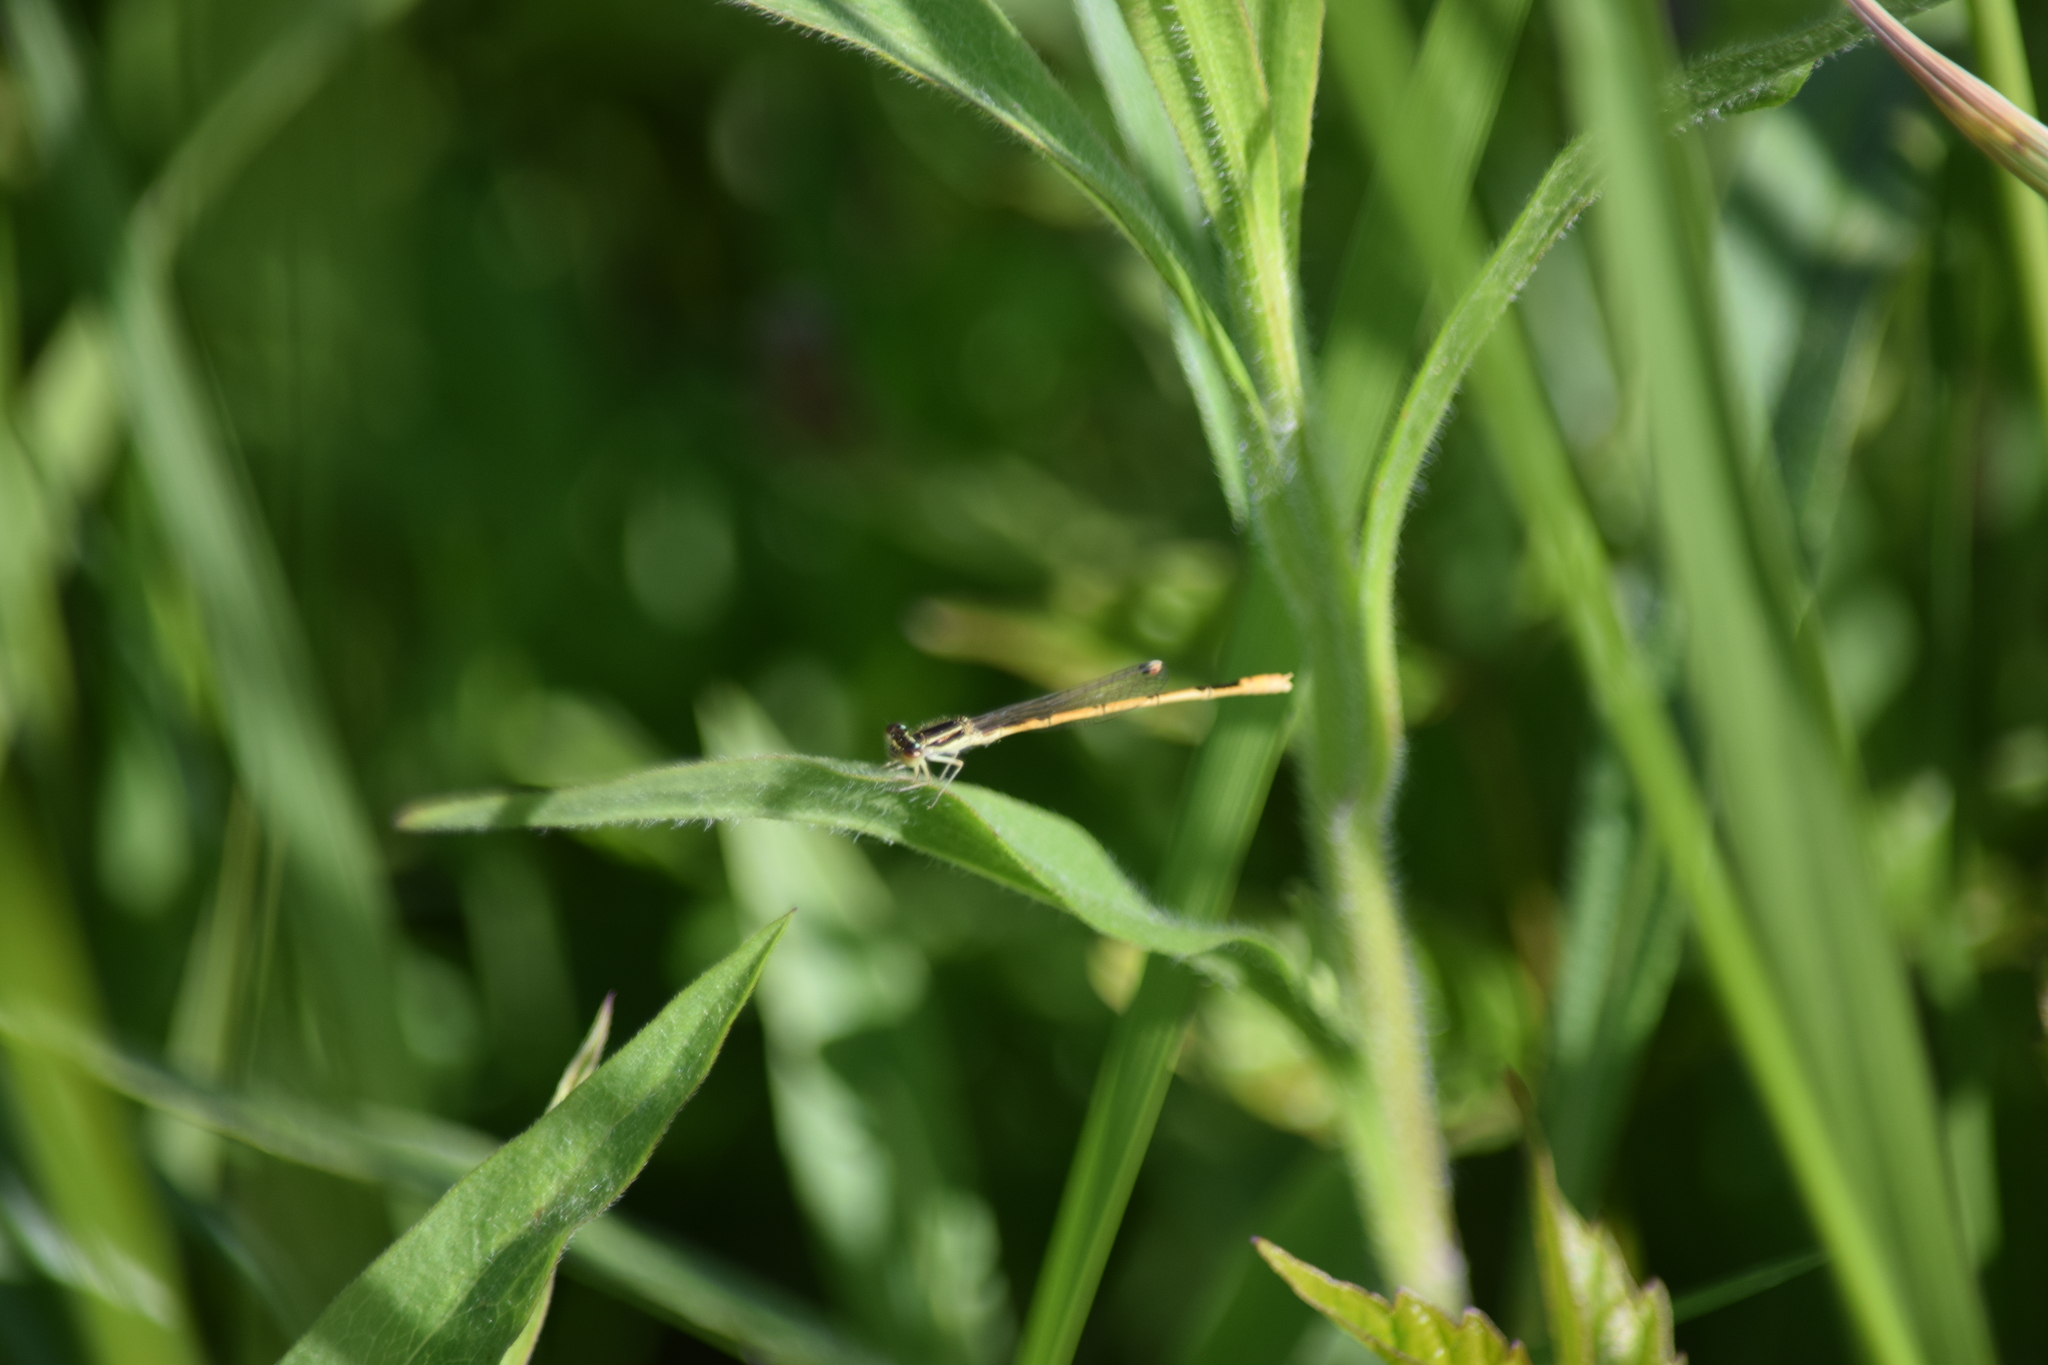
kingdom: Animalia
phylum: Arthropoda
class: Insecta
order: Odonata
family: Coenagrionidae
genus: Ischnura
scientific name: Ischnura hastata
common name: Citrine forktail
